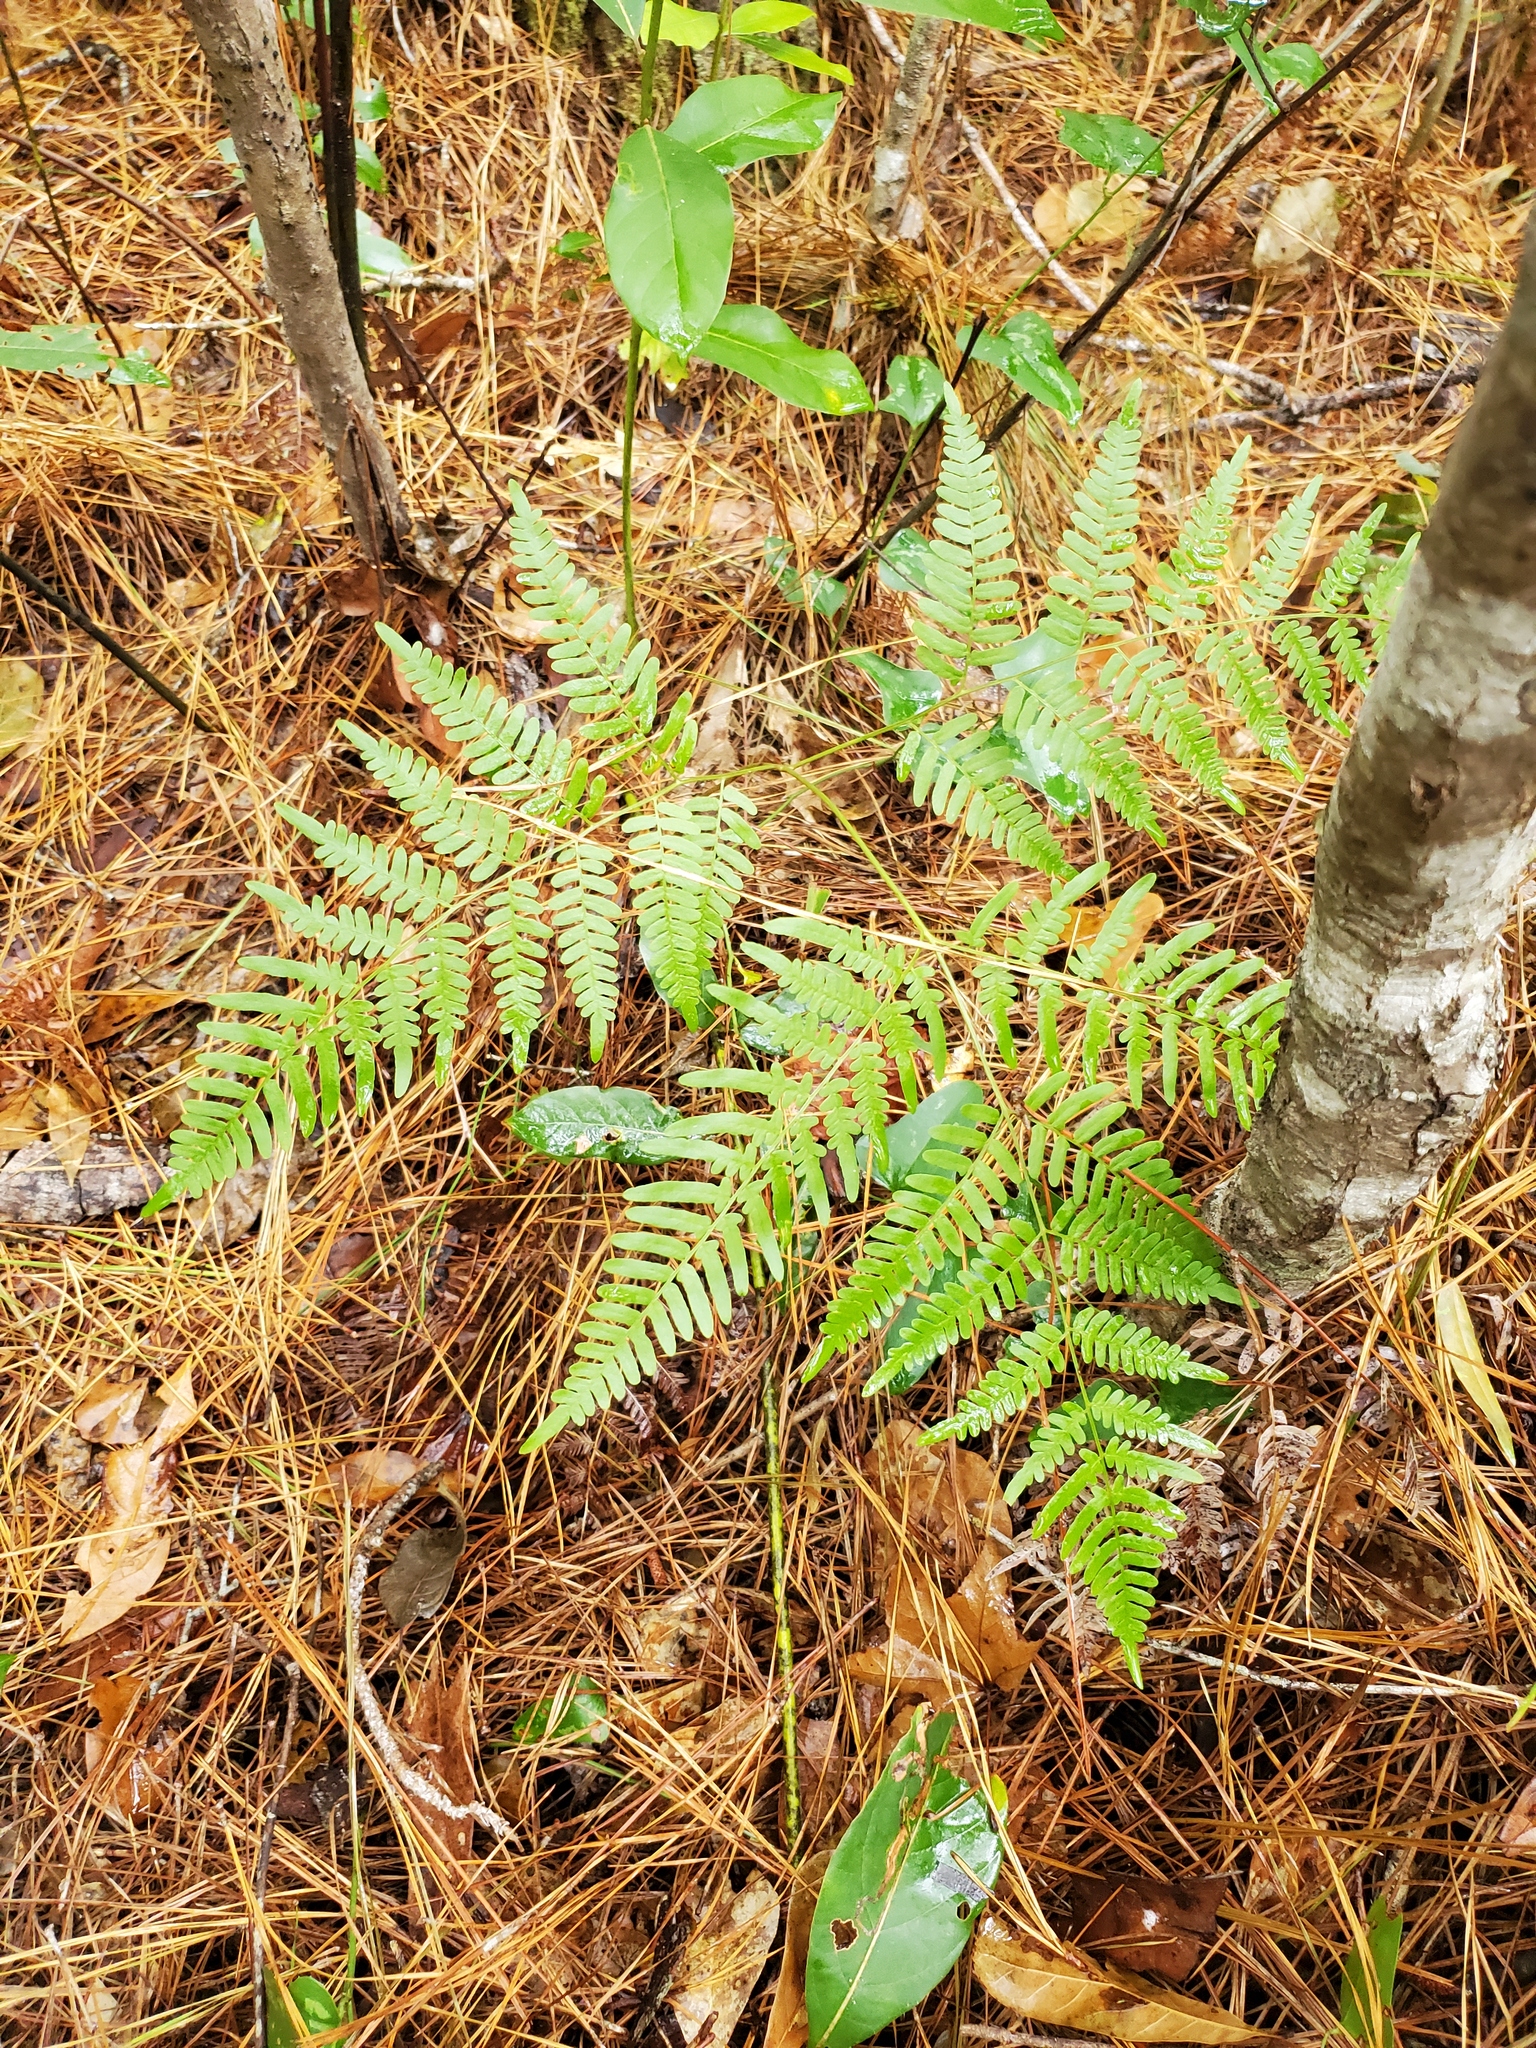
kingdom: Plantae
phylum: Tracheophyta
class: Polypodiopsida
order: Polypodiales
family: Dennstaedtiaceae
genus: Pteridium
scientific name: Pteridium aquilinum
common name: Bracken
